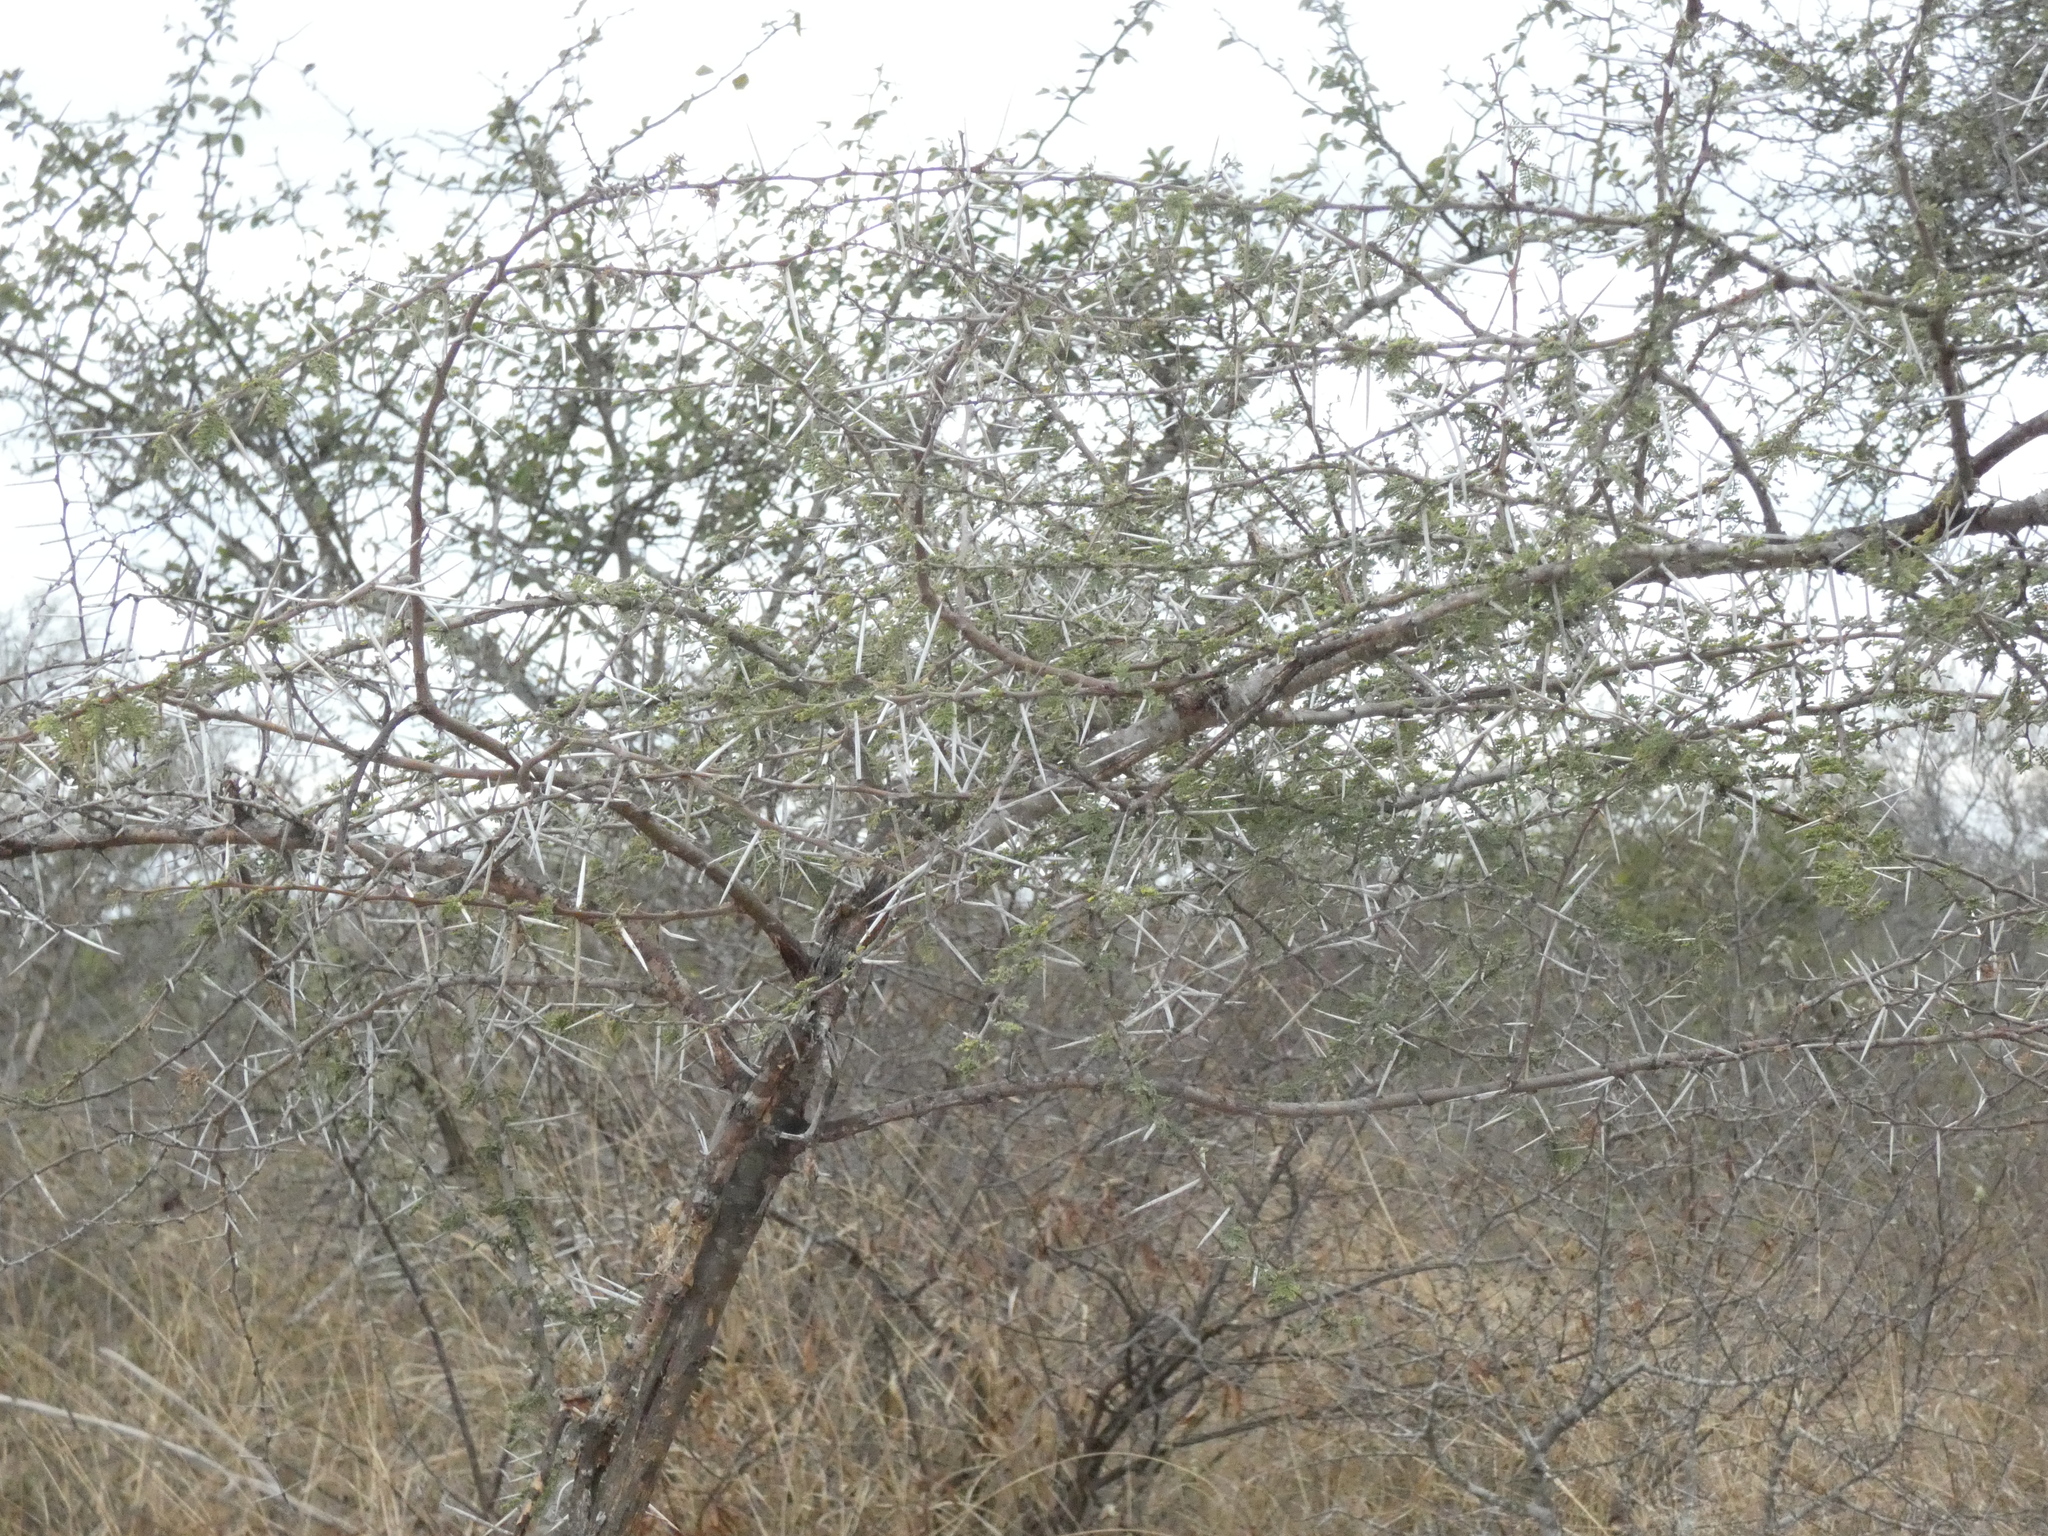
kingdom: Plantae
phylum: Tracheophyta
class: Magnoliopsida
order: Fabales
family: Fabaceae
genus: Vachellia
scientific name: Vachellia tortilis
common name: Umbrella thorn acacia
